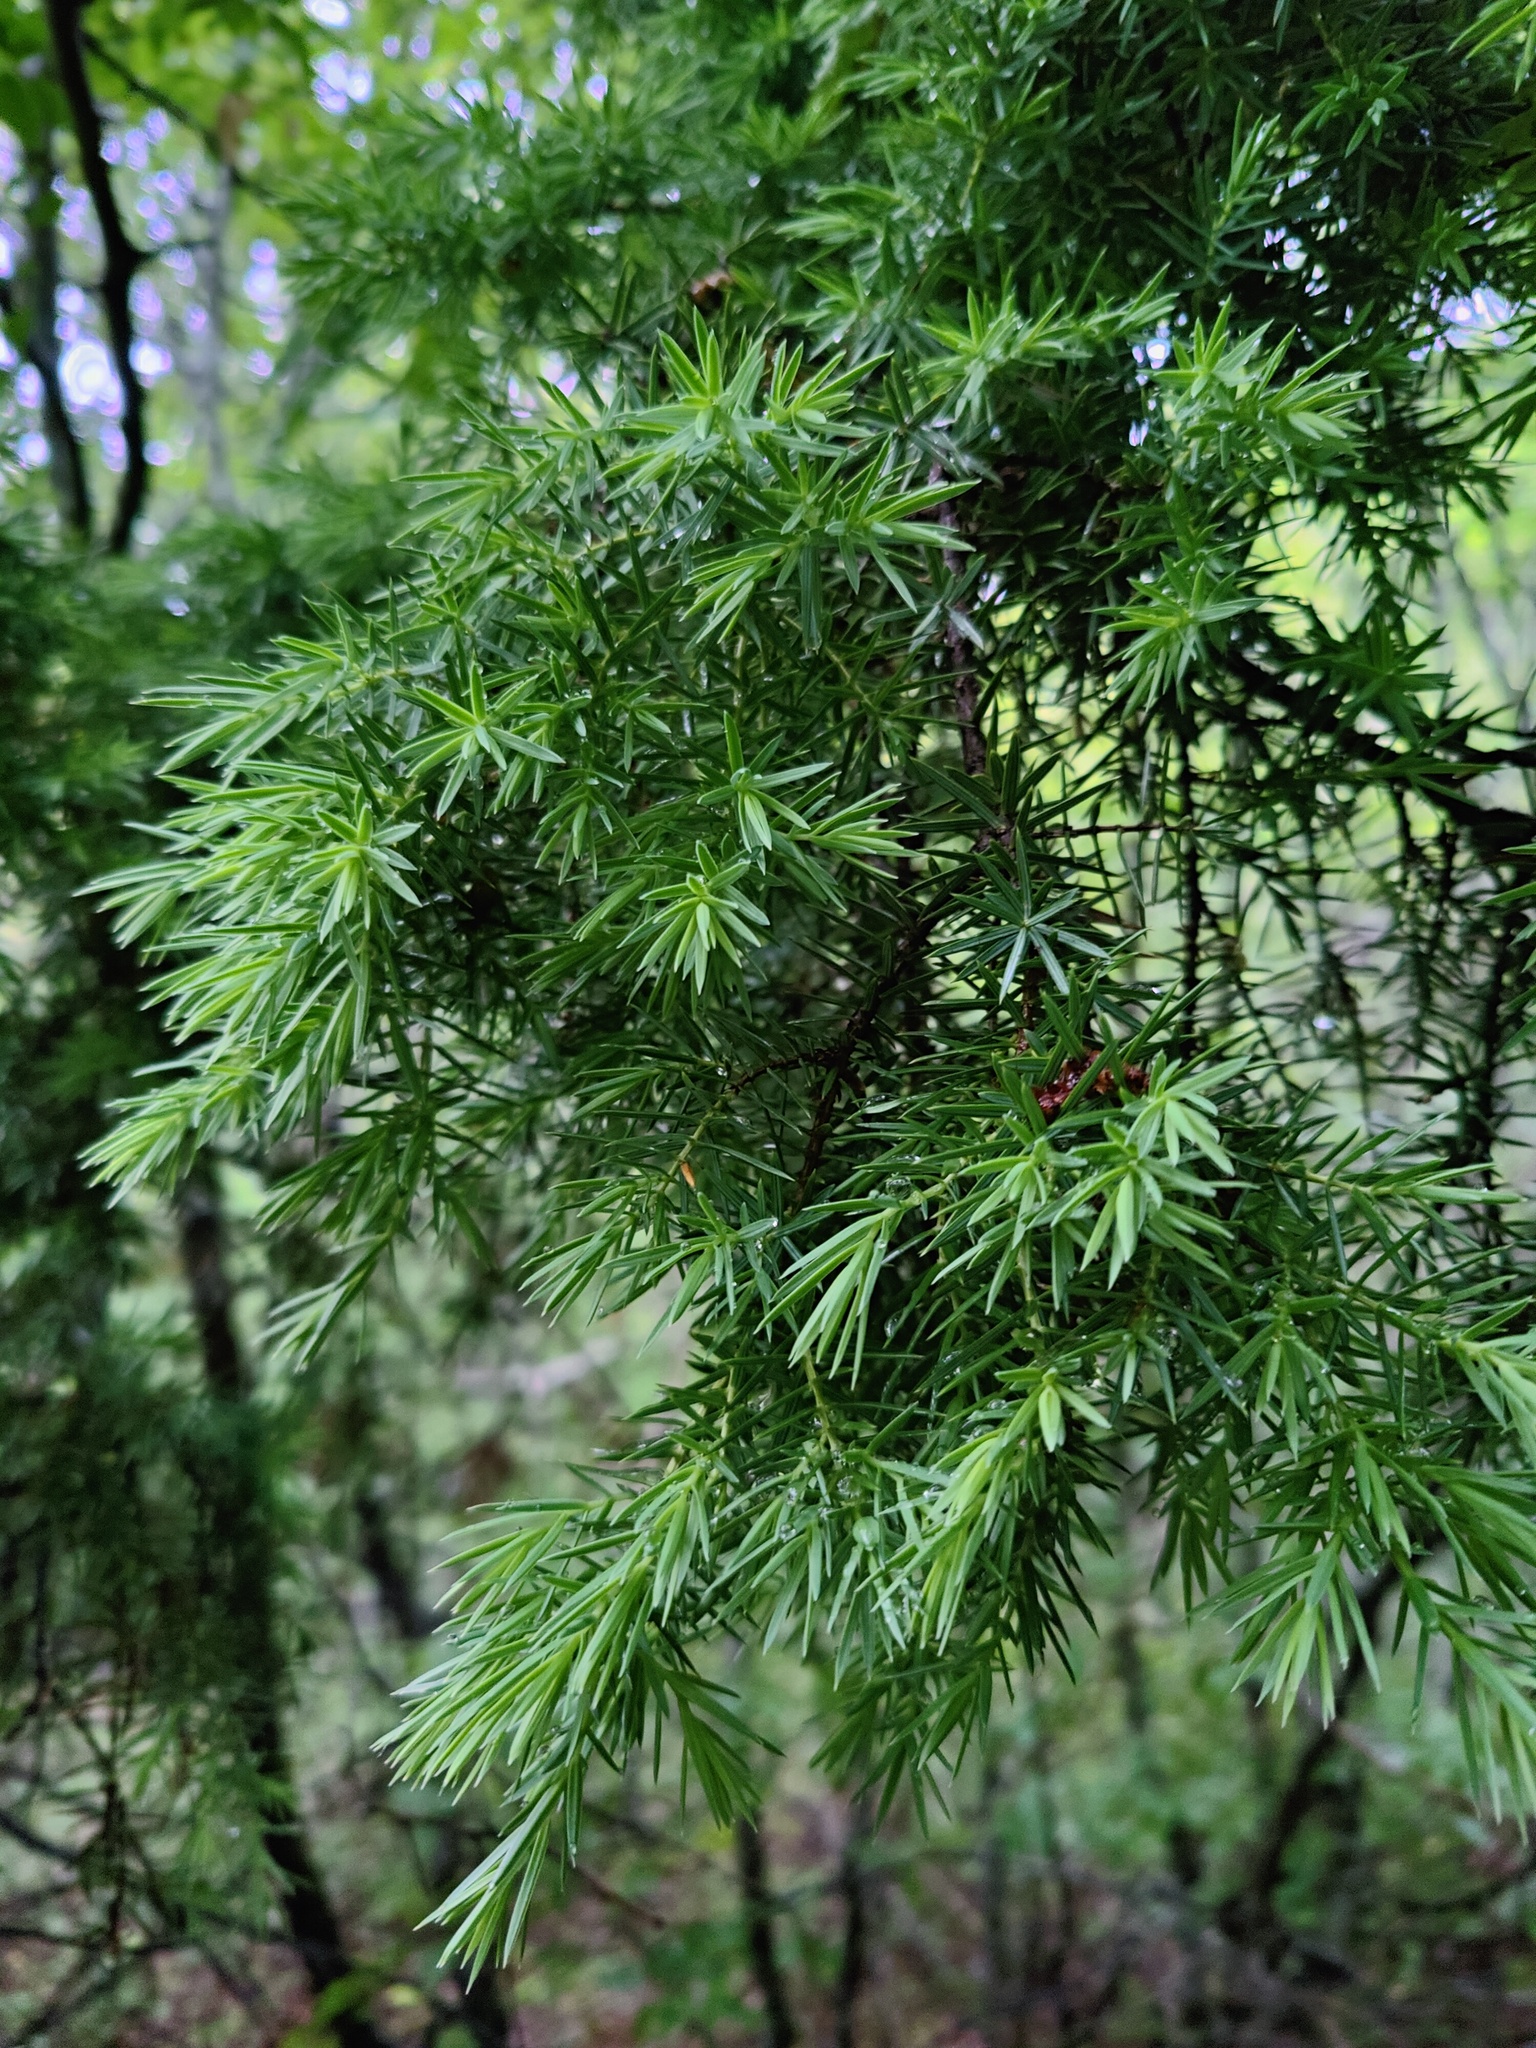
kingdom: Plantae
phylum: Tracheophyta
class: Pinopsida
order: Pinales
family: Cupressaceae
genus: Juniperus
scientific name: Juniperus oxycedrus
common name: Prickly juniper
